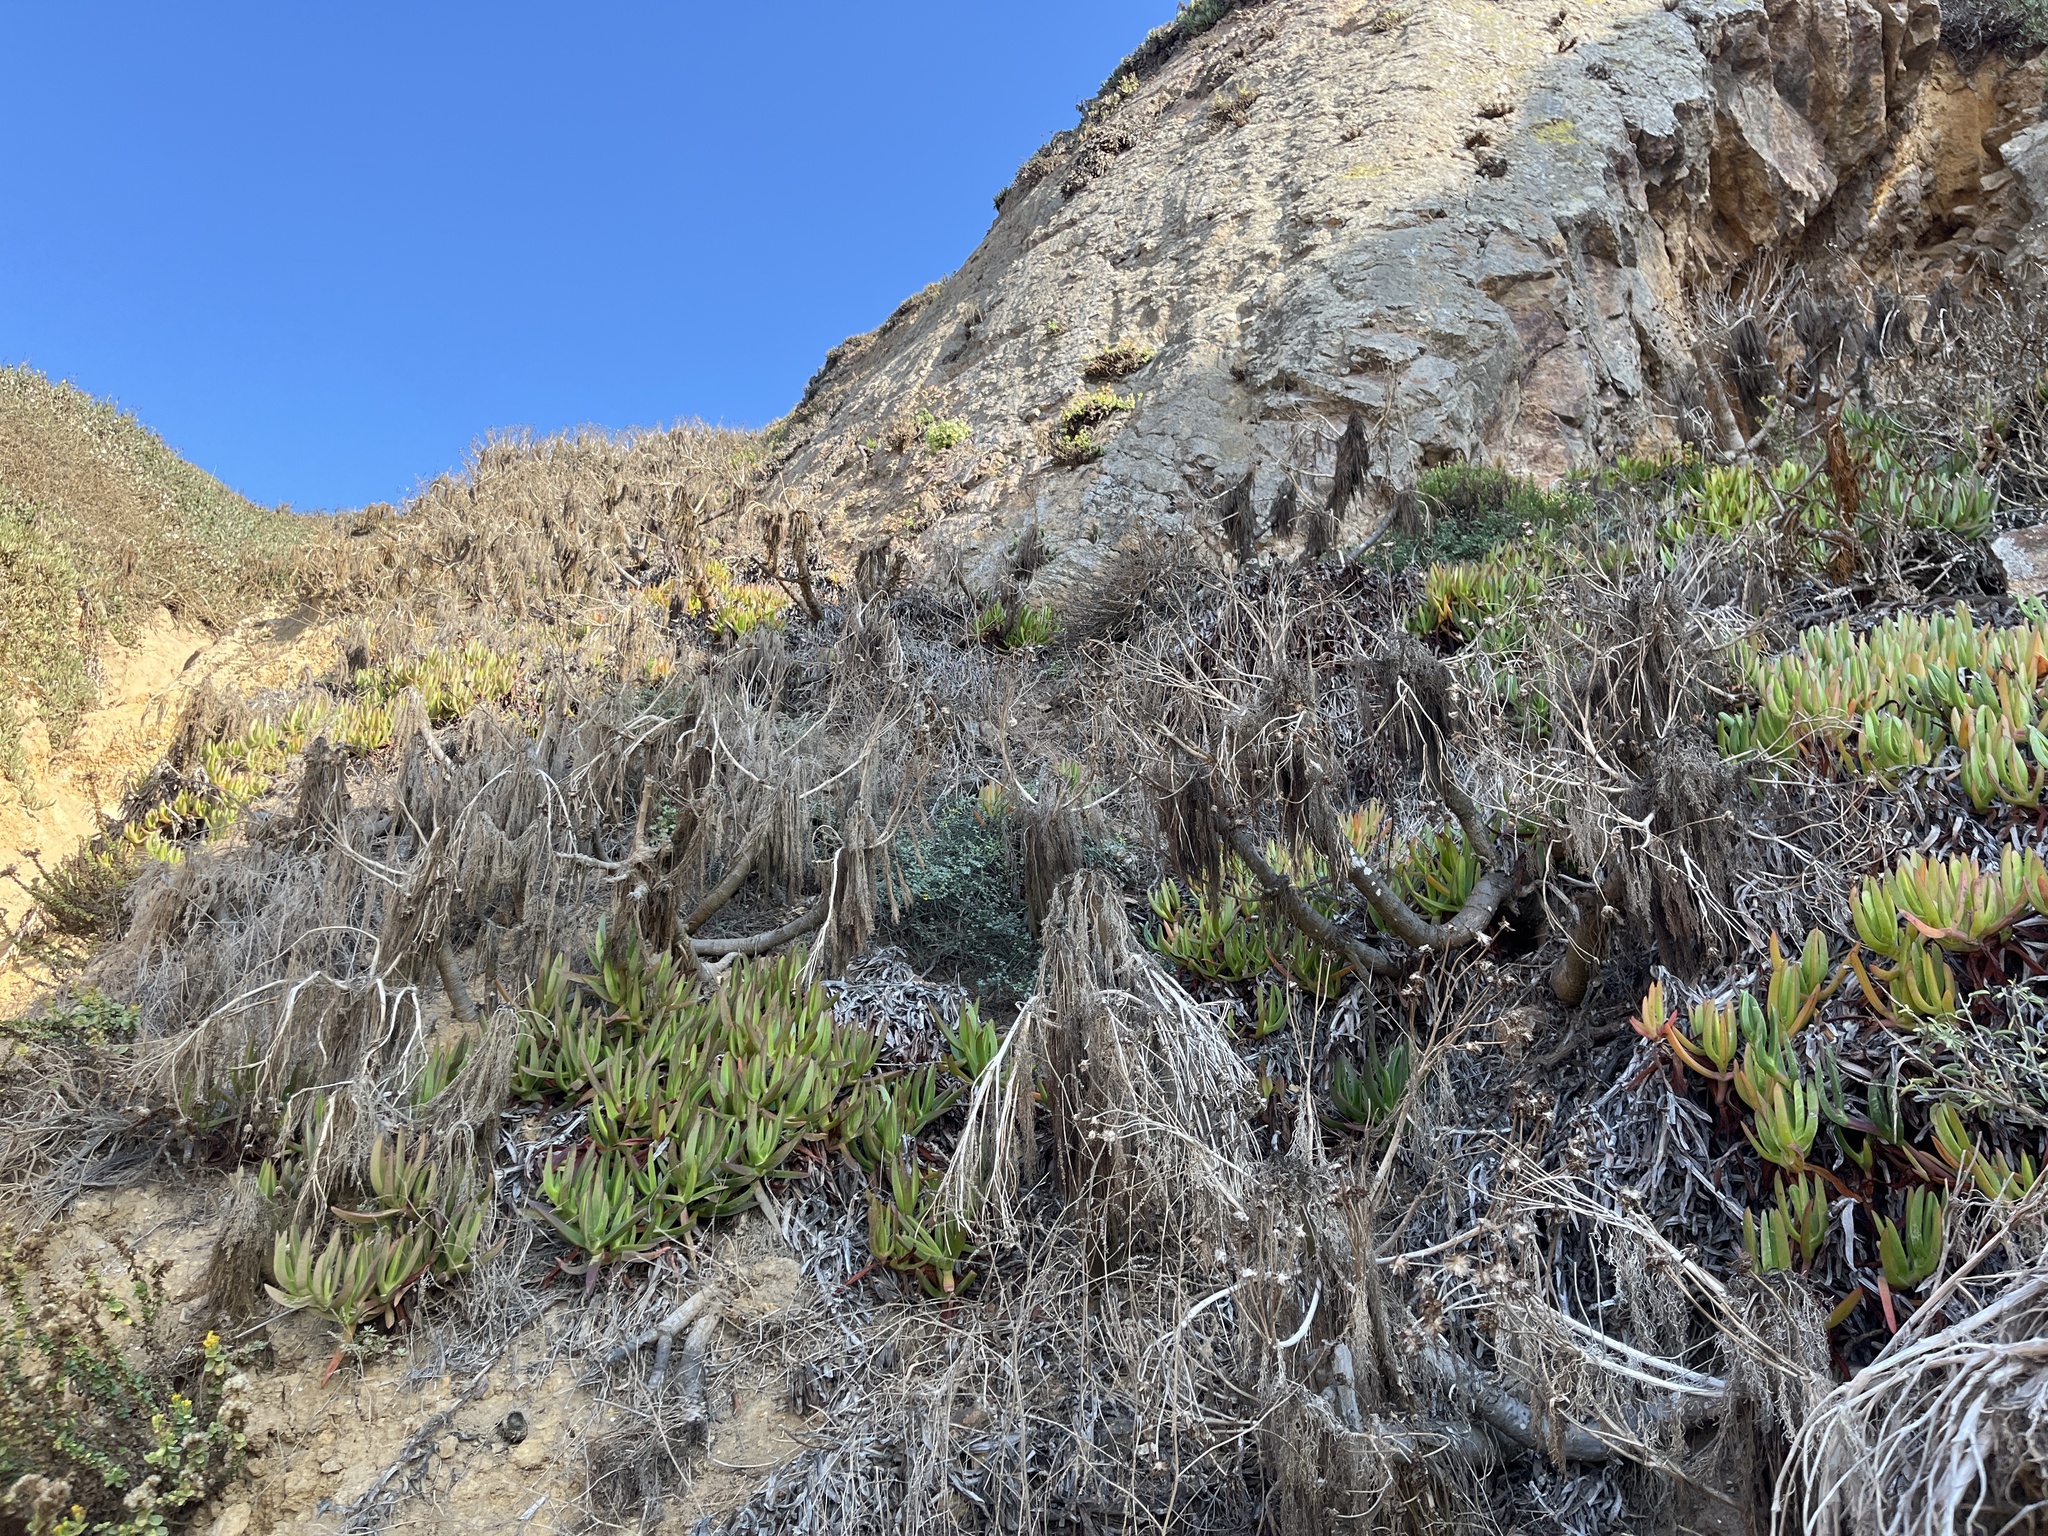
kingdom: Plantae
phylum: Tracheophyta
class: Magnoliopsida
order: Asterales
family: Asteraceae
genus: Coreopsis
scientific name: Coreopsis gigantea
